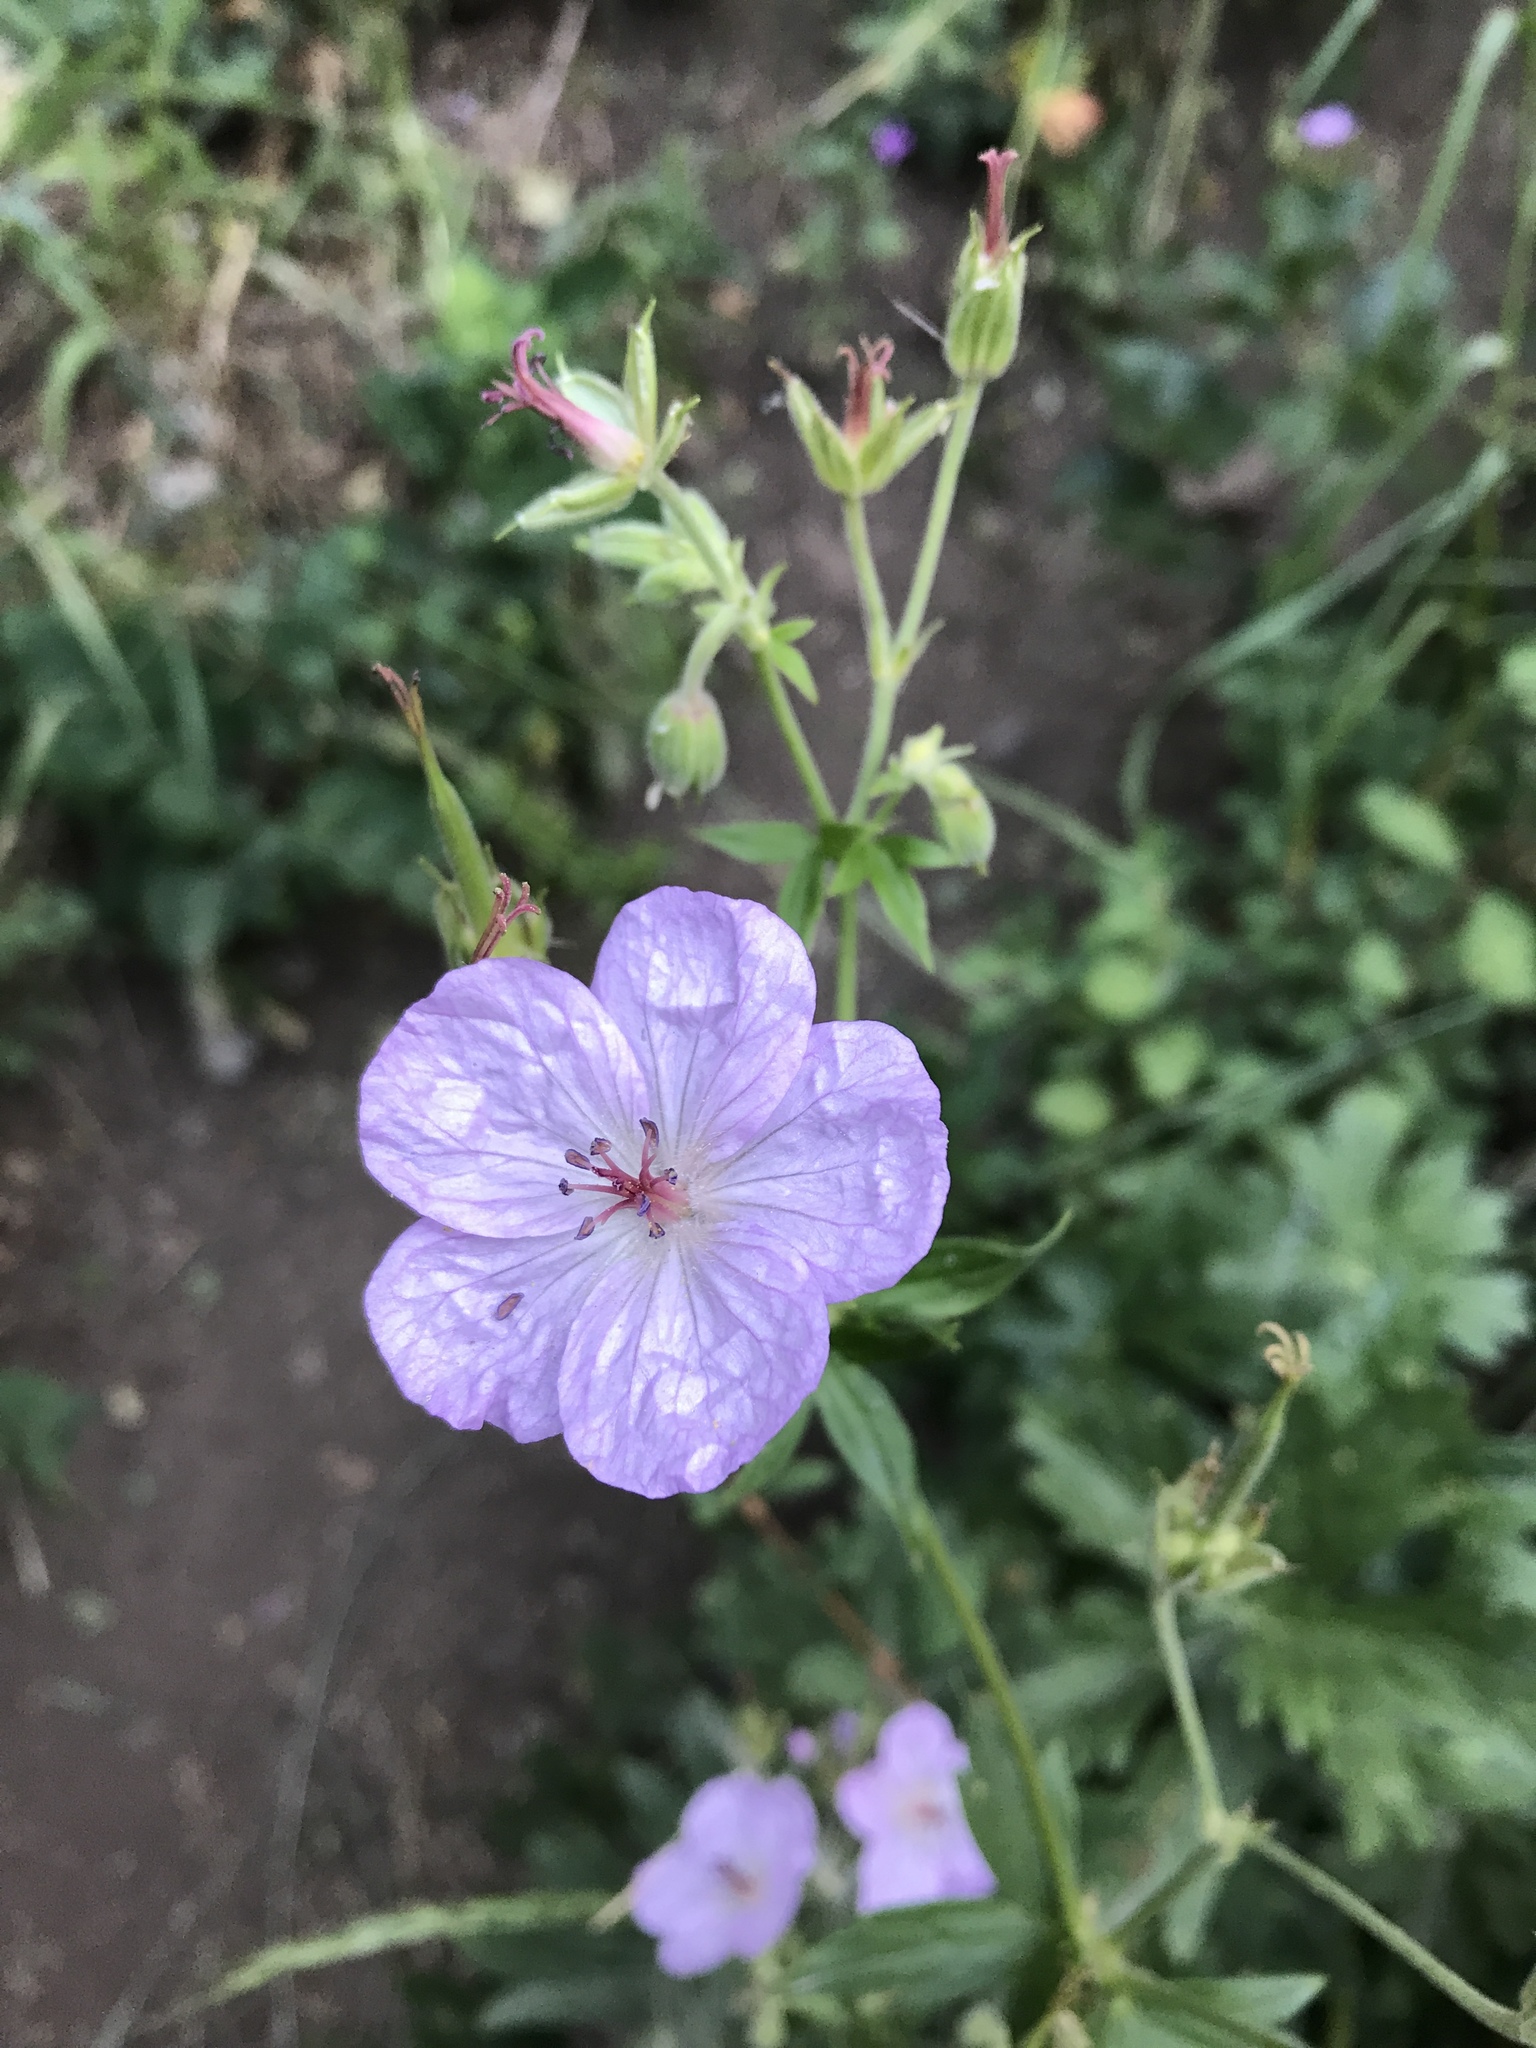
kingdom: Plantae
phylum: Tracheophyta
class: Magnoliopsida
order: Geraniales
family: Geraniaceae
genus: Geranium
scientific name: Geranium richardsonii
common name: Richardson's crane's-bill
